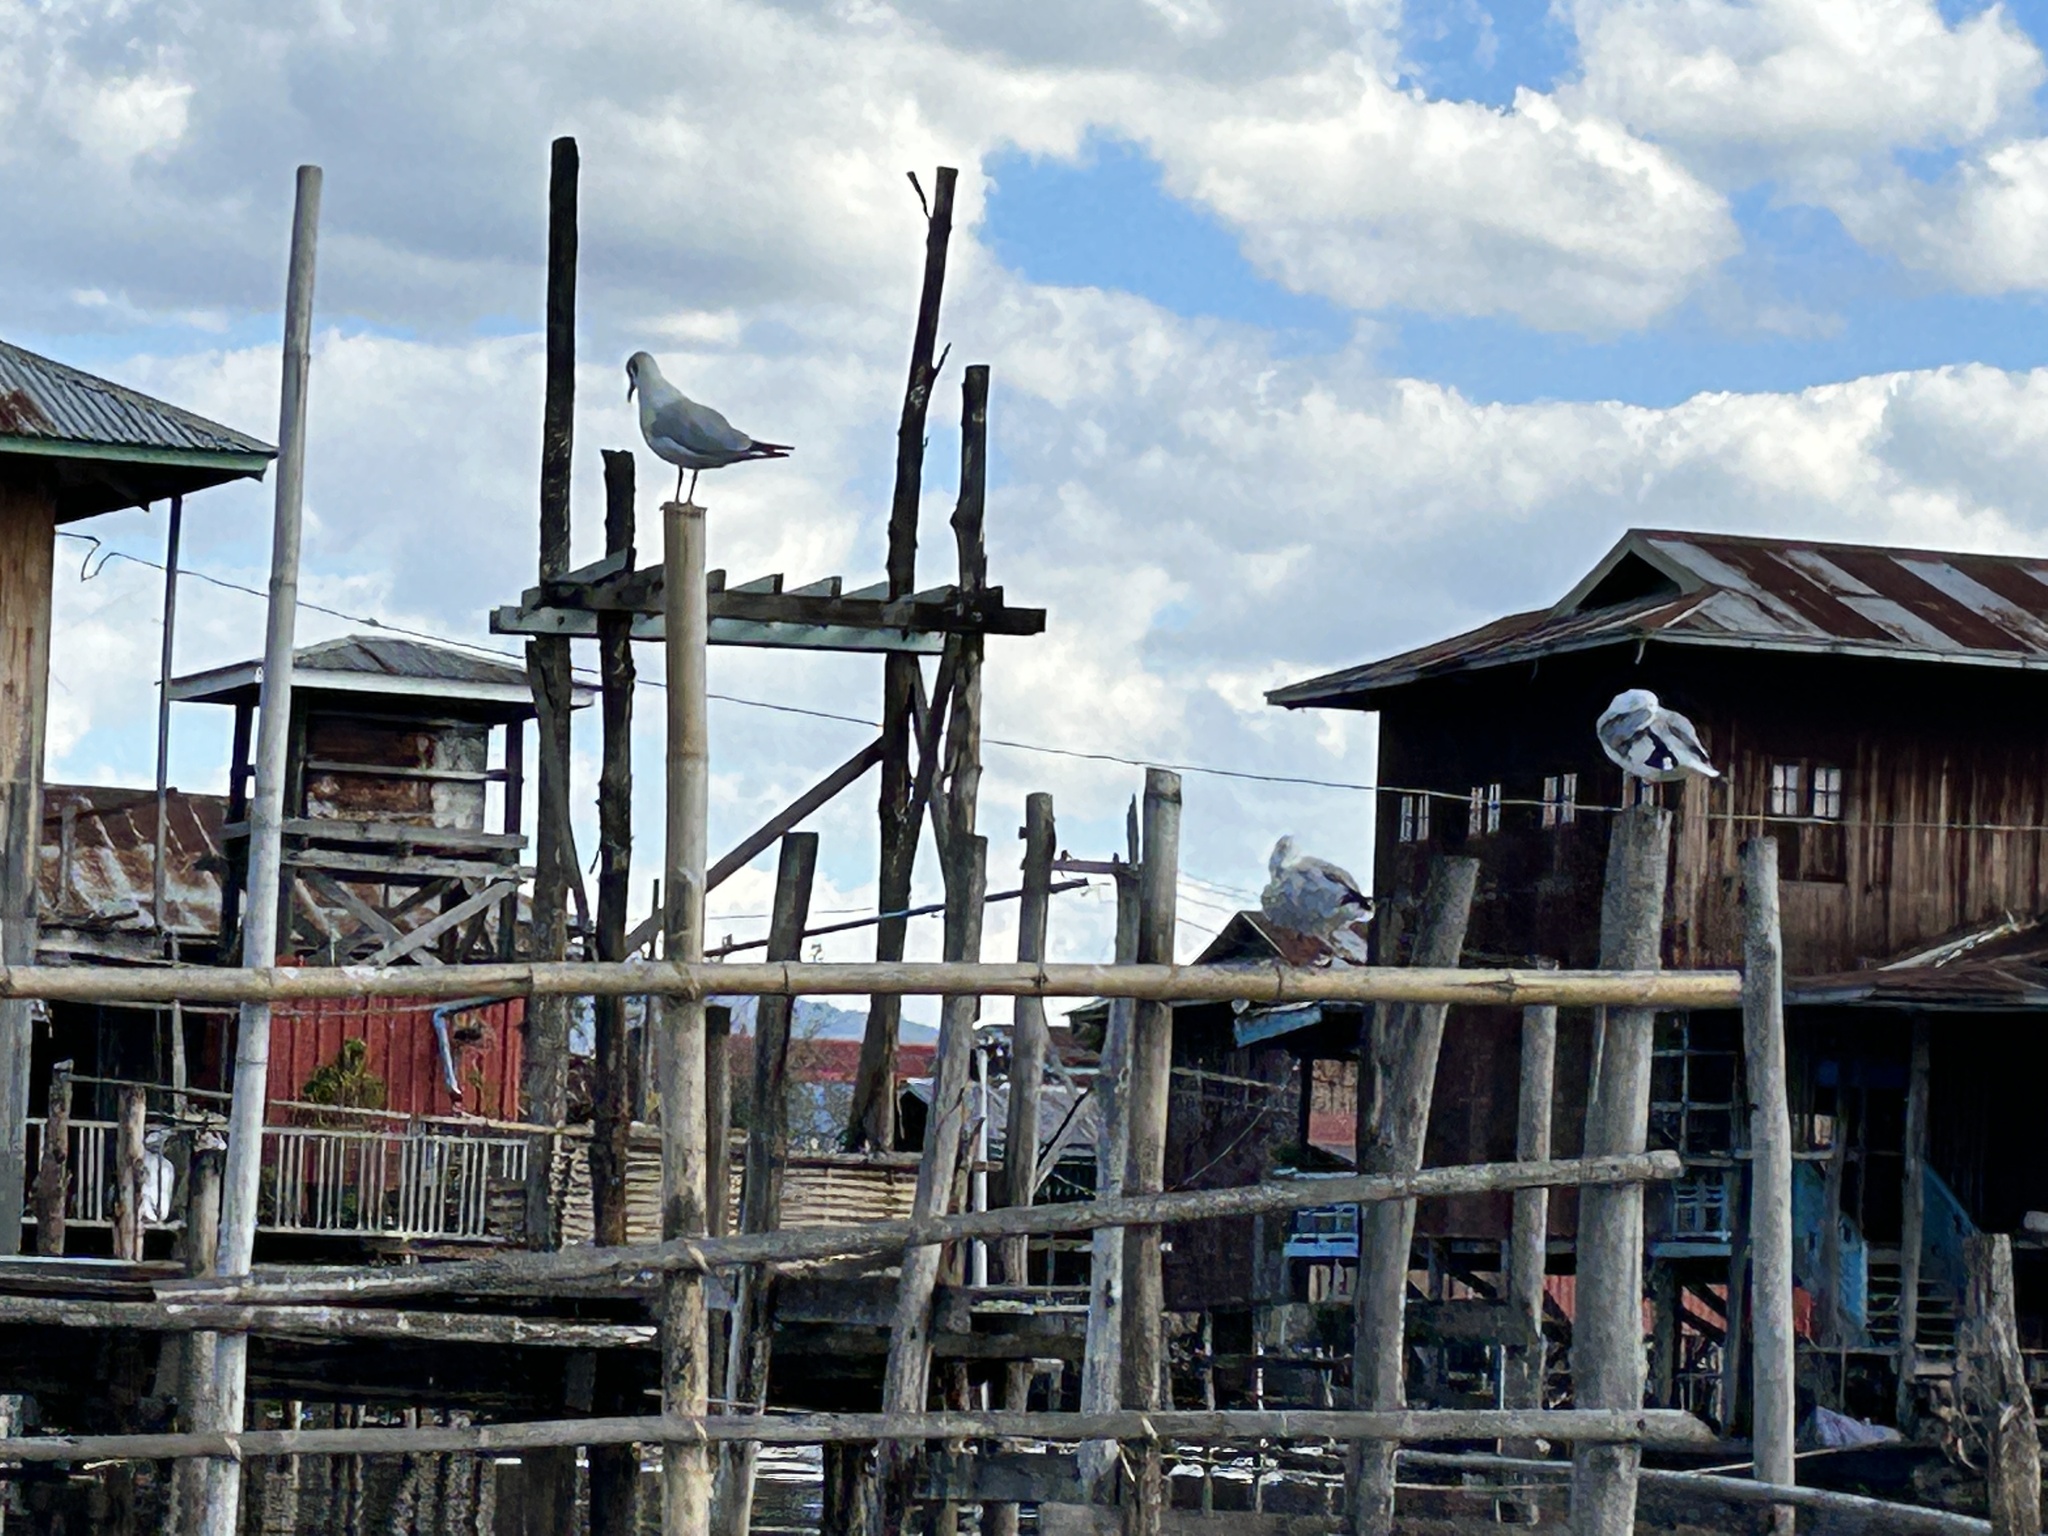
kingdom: Animalia
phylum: Chordata
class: Aves
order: Charadriiformes
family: Laridae
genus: Chroicocephalus
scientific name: Chroicocephalus brunnicephalus
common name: Brown-headed gull
